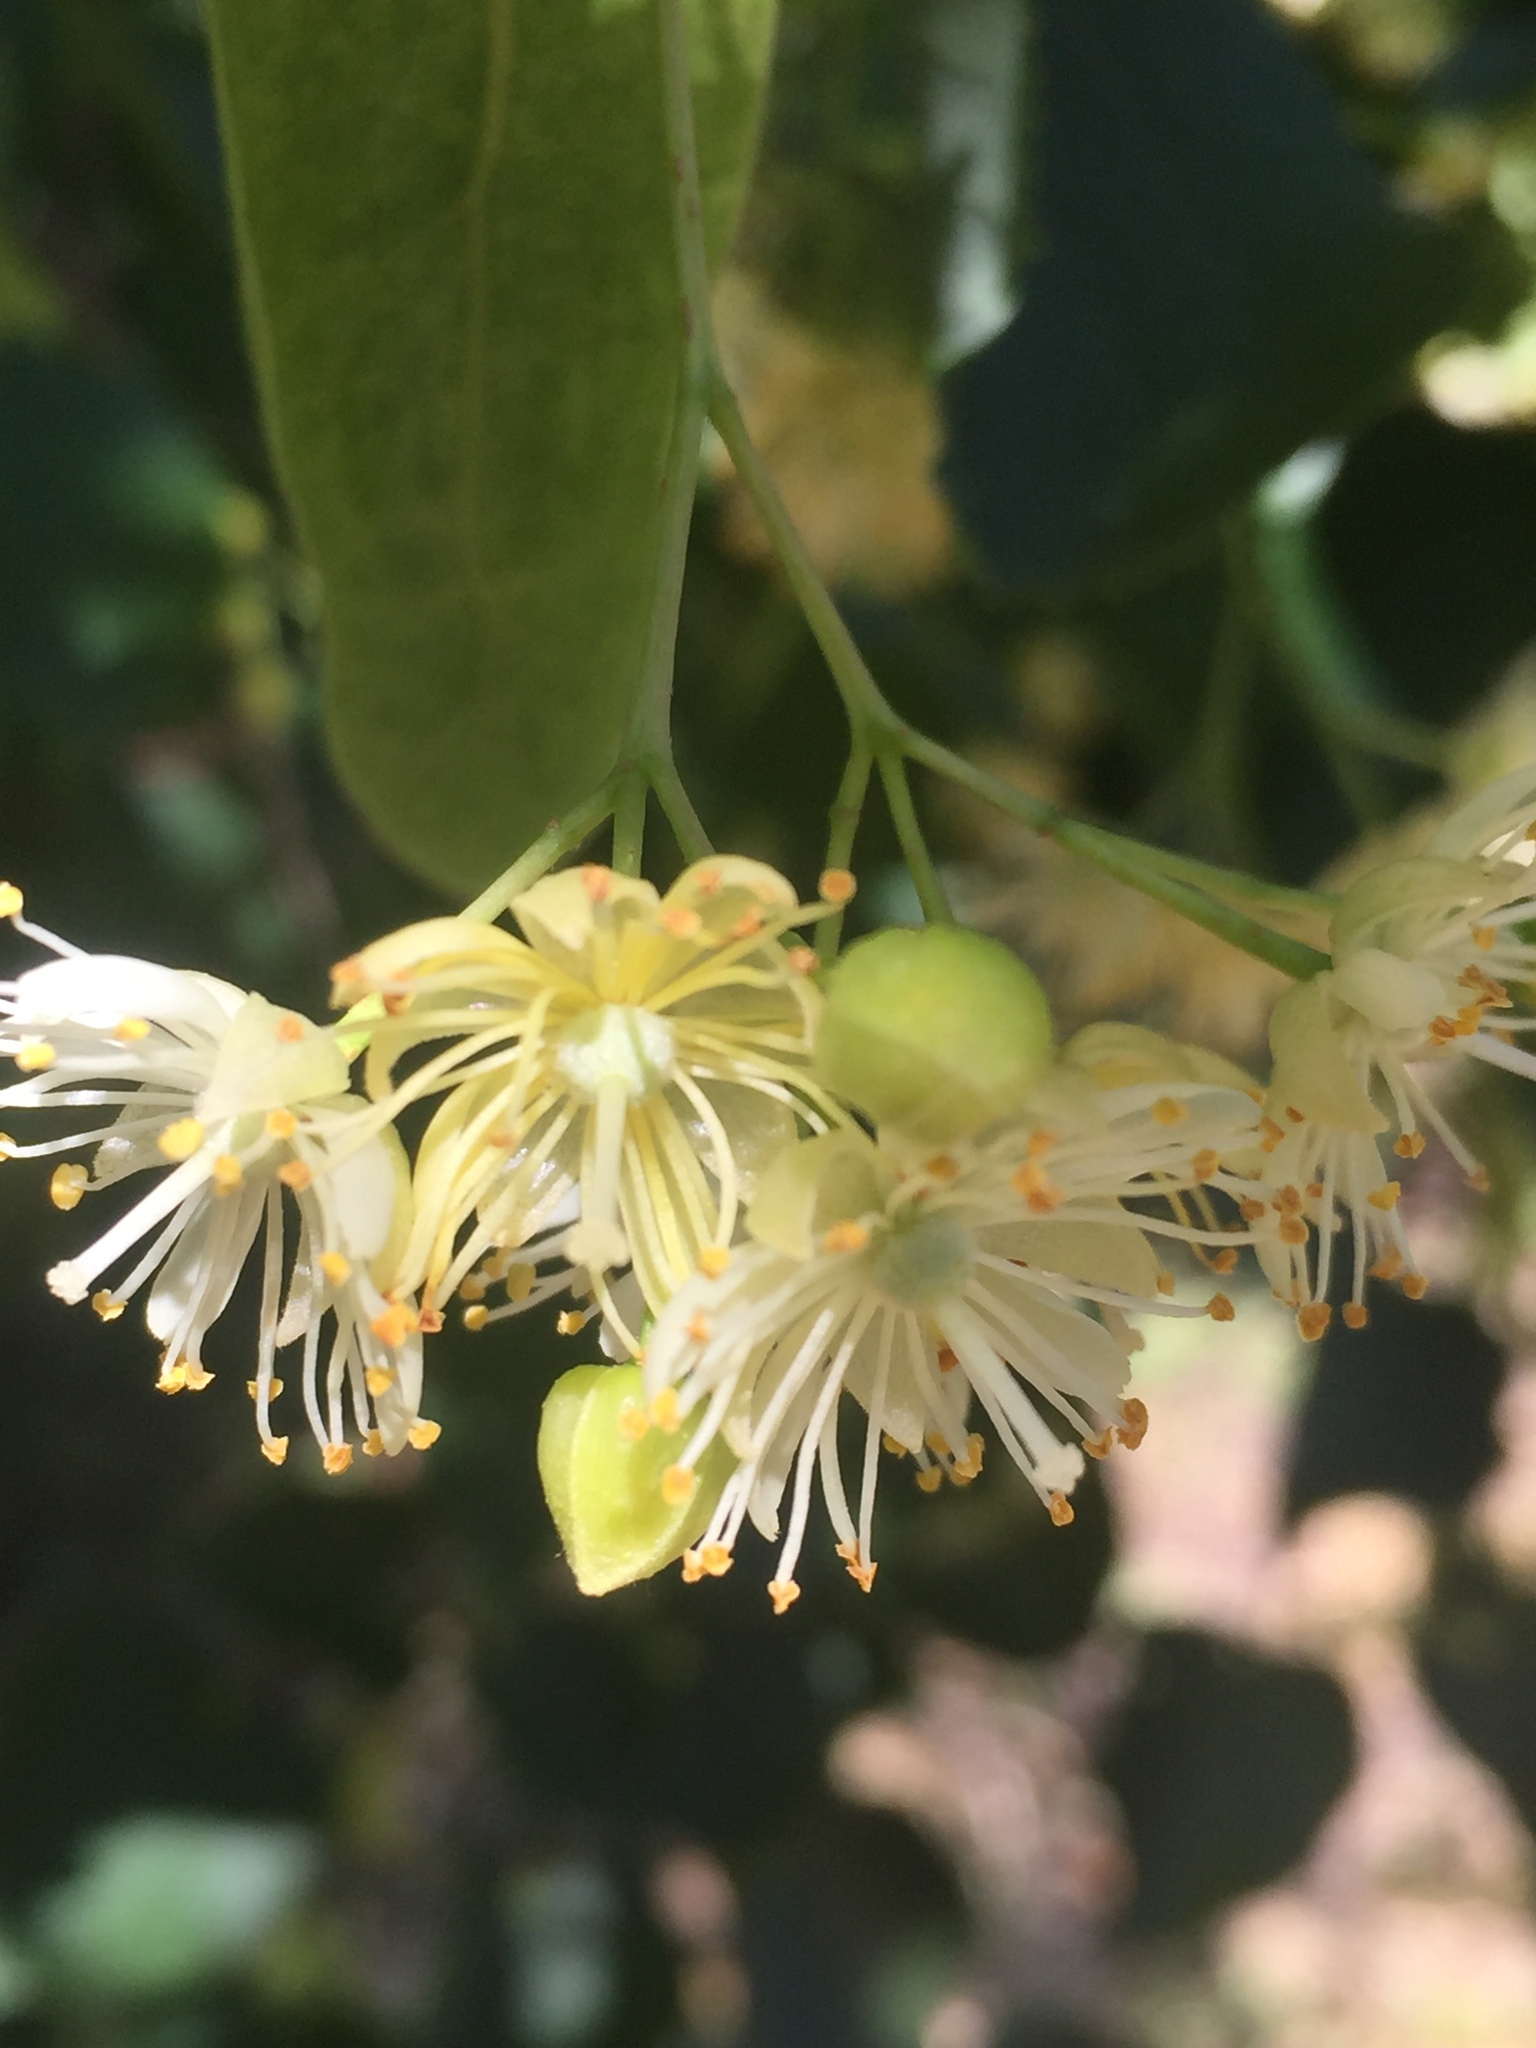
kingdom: Plantae
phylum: Tracheophyta
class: Magnoliopsida
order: Malvales
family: Malvaceae
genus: Tilia
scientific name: Tilia cordata
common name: Small-leaved lime
